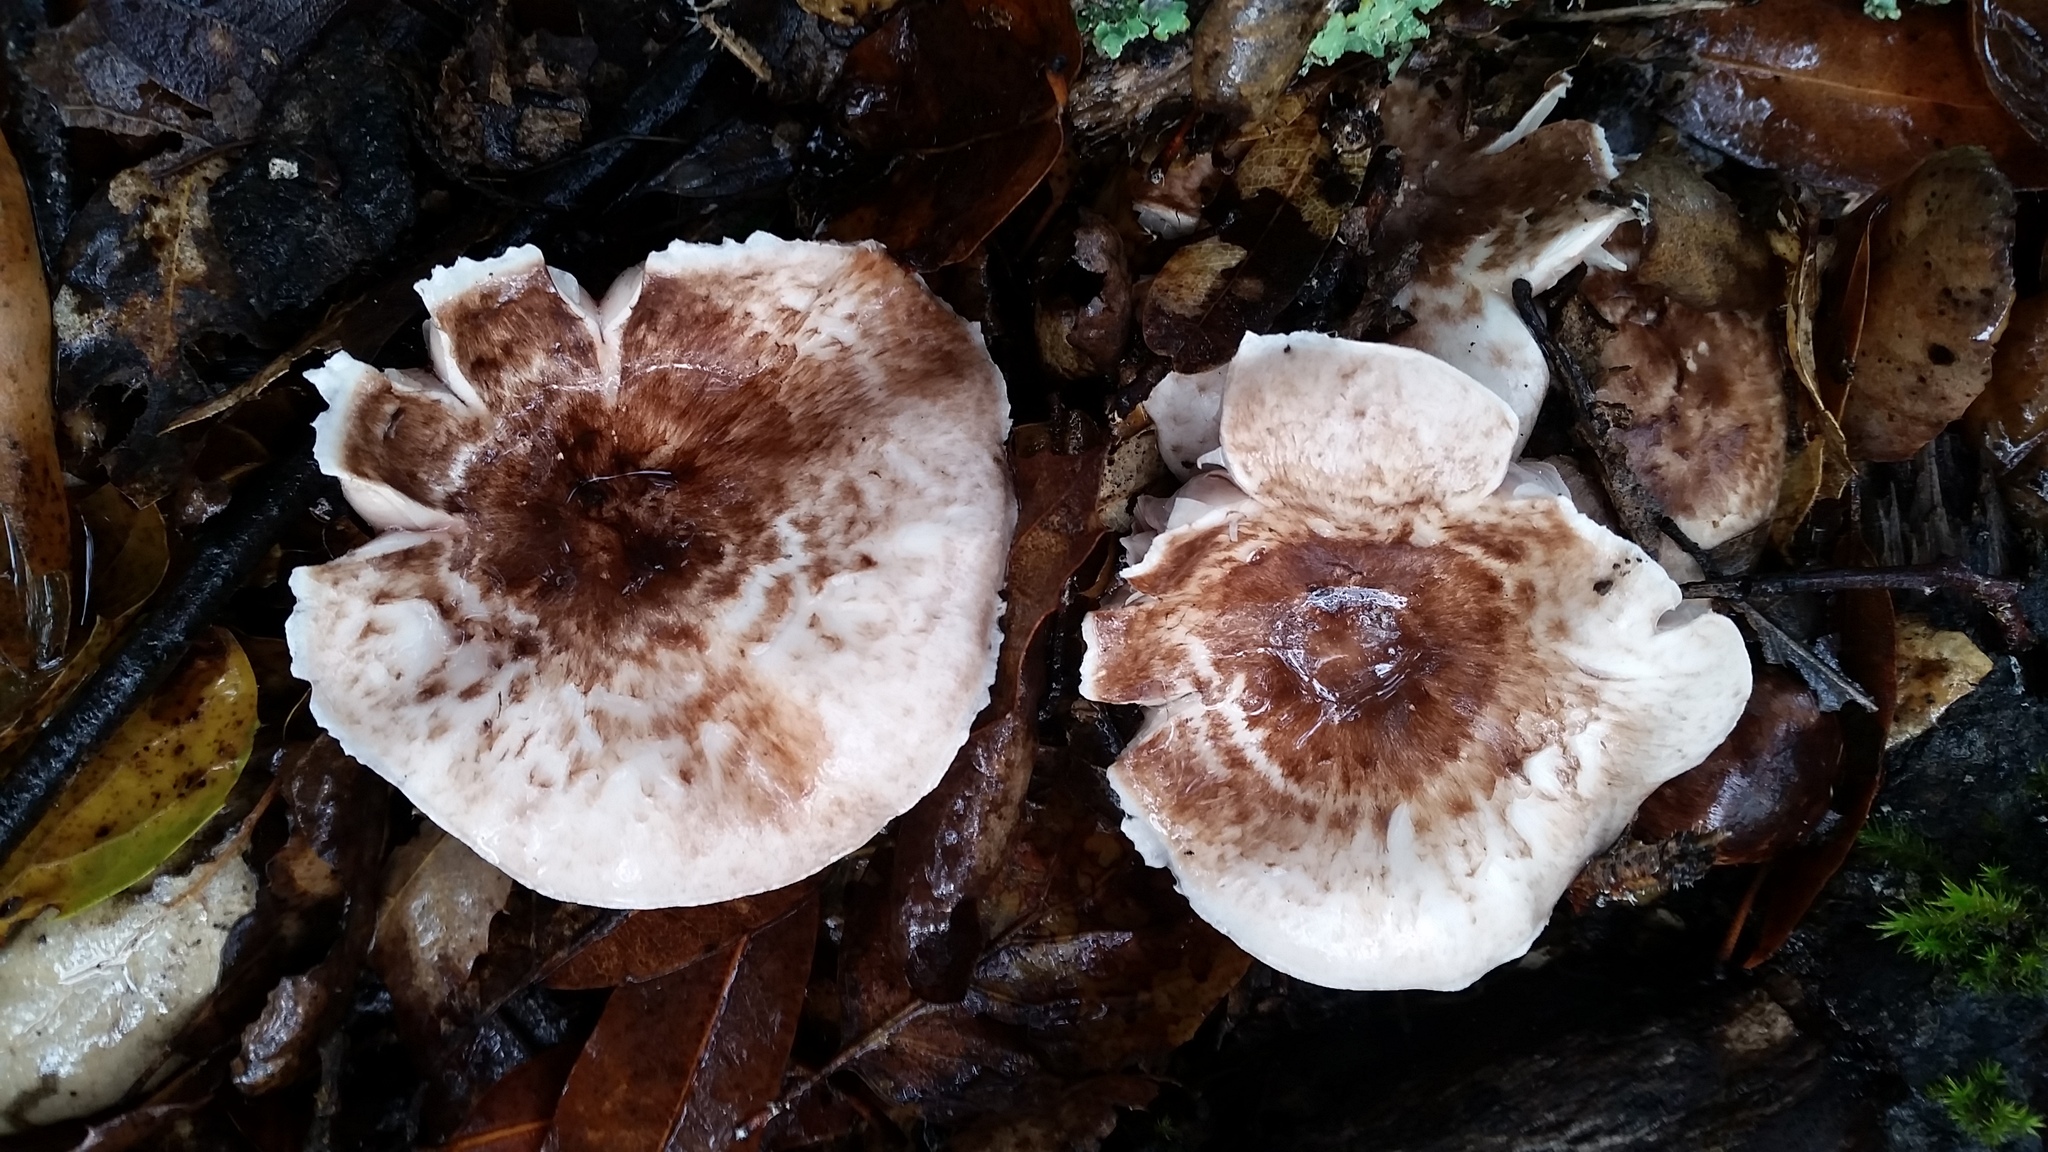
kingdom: Fungi
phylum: Basidiomycota
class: Agaricomycetes
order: Agaricales
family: Agaricaceae
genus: Agaricus
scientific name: Agaricus subrutilescens
